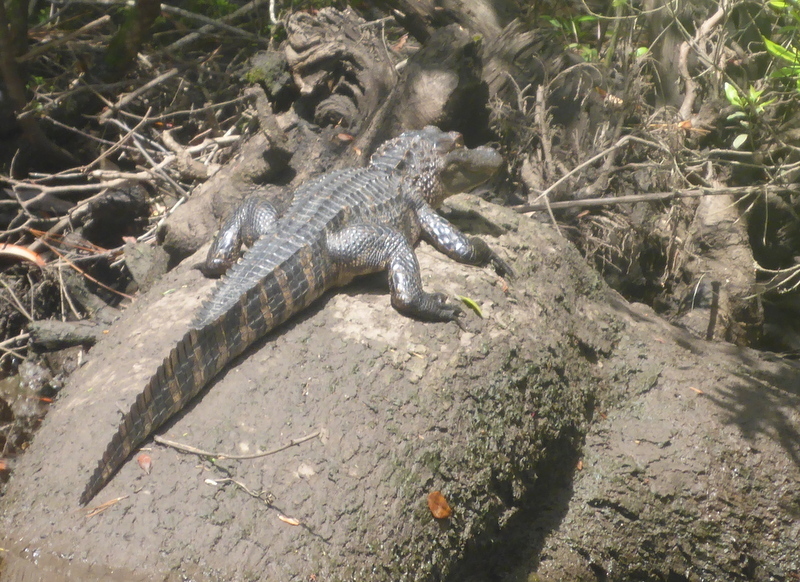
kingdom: Animalia
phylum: Chordata
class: Crocodylia
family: Alligatoridae
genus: Alligator
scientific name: Alligator mississippiensis
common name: American alligator
